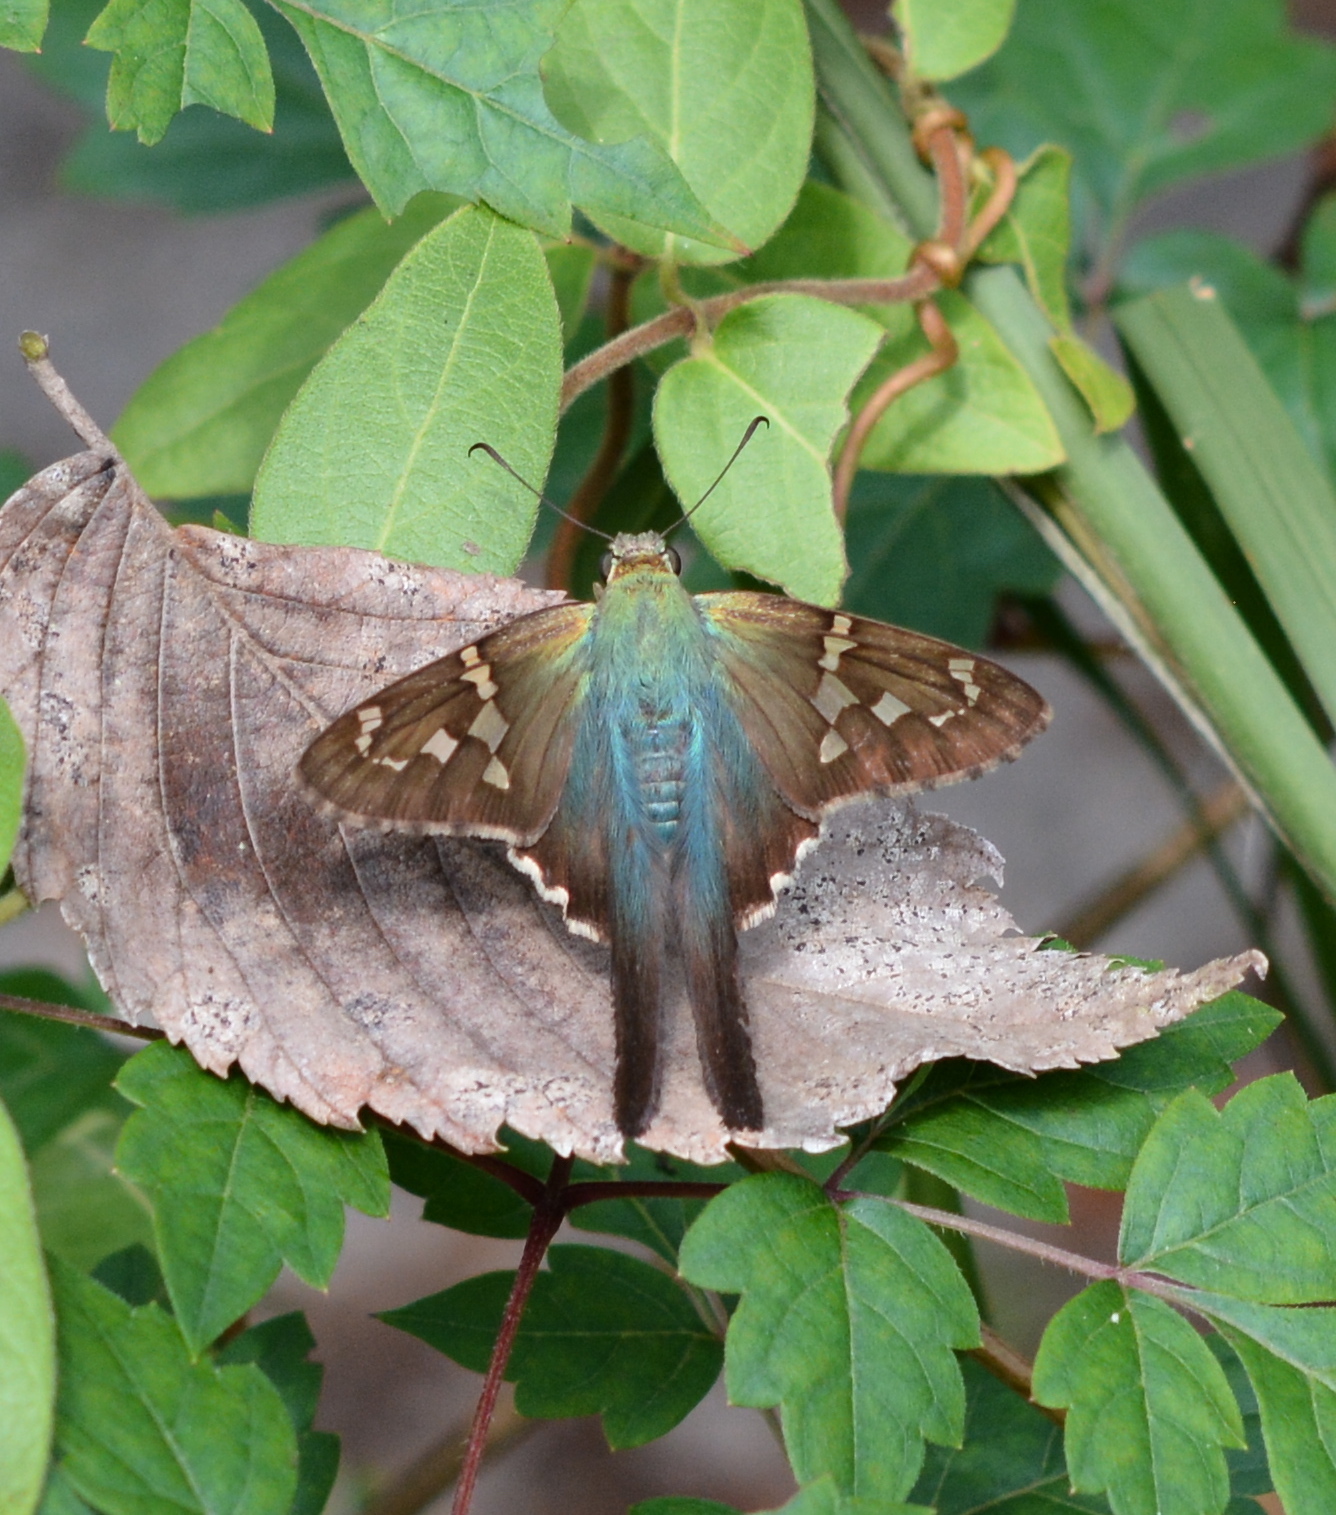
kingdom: Animalia
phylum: Arthropoda
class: Insecta
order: Lepidoptera
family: Hesperiidae
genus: Urbanus
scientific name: Urbanus proteus
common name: Long-tailed skipper
